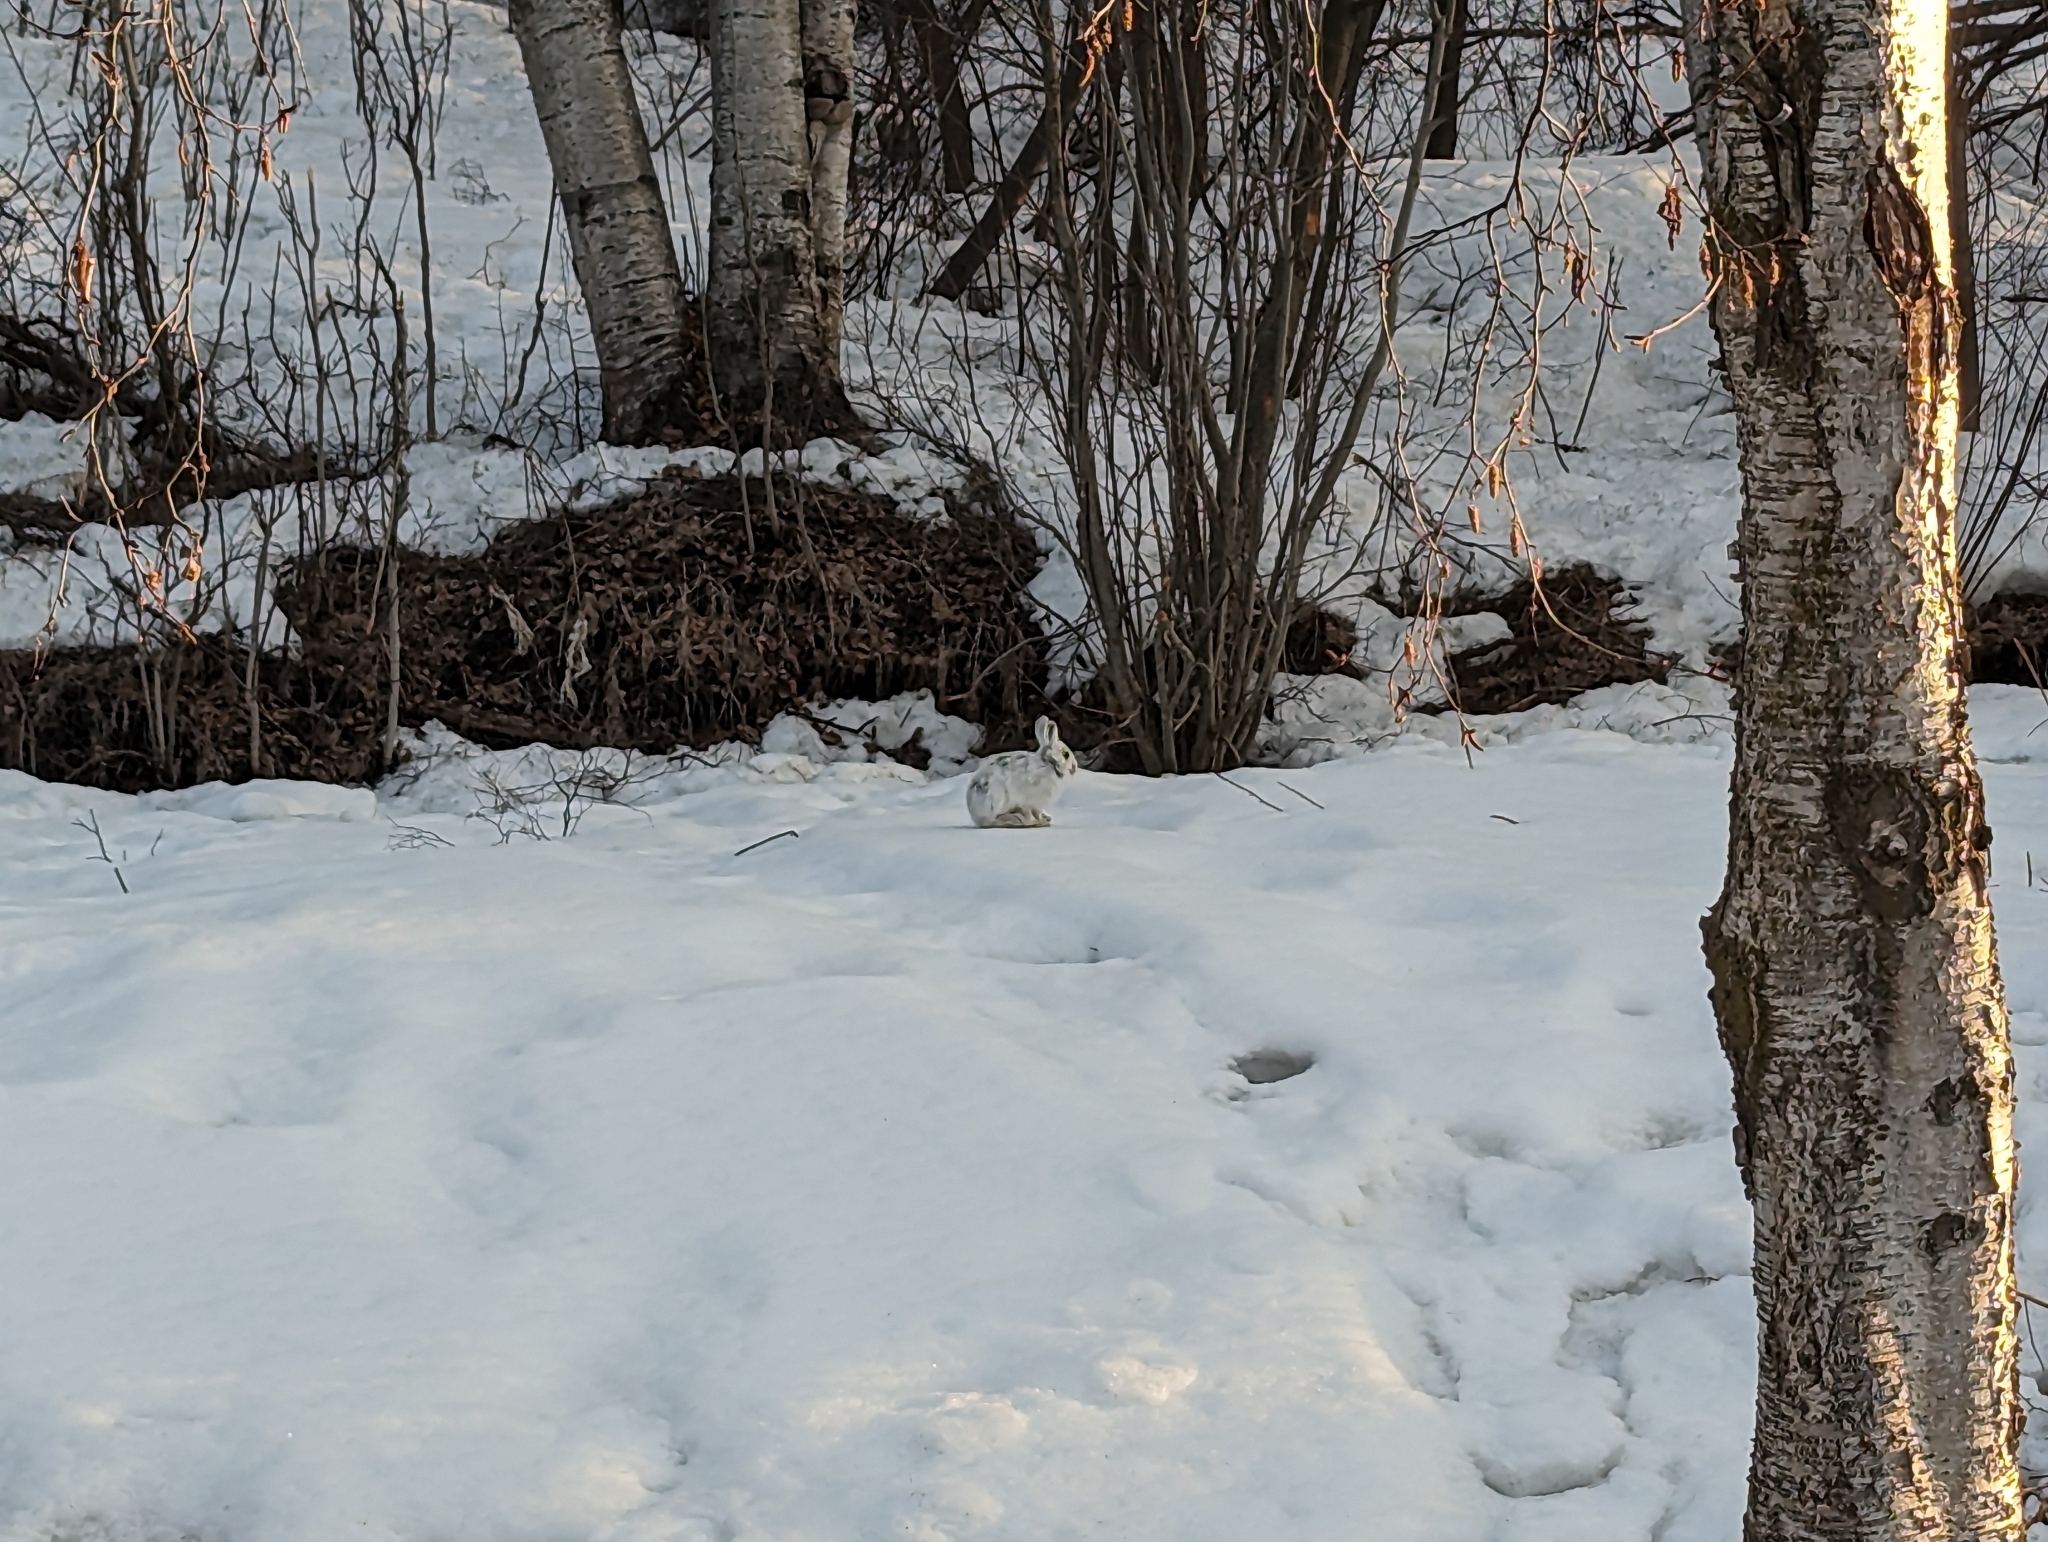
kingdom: Animalia
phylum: Chordata
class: Mammalia
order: Lagomorpha
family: Leporidae
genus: Lepus
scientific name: Lepus americanus
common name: Snowshoe hare
